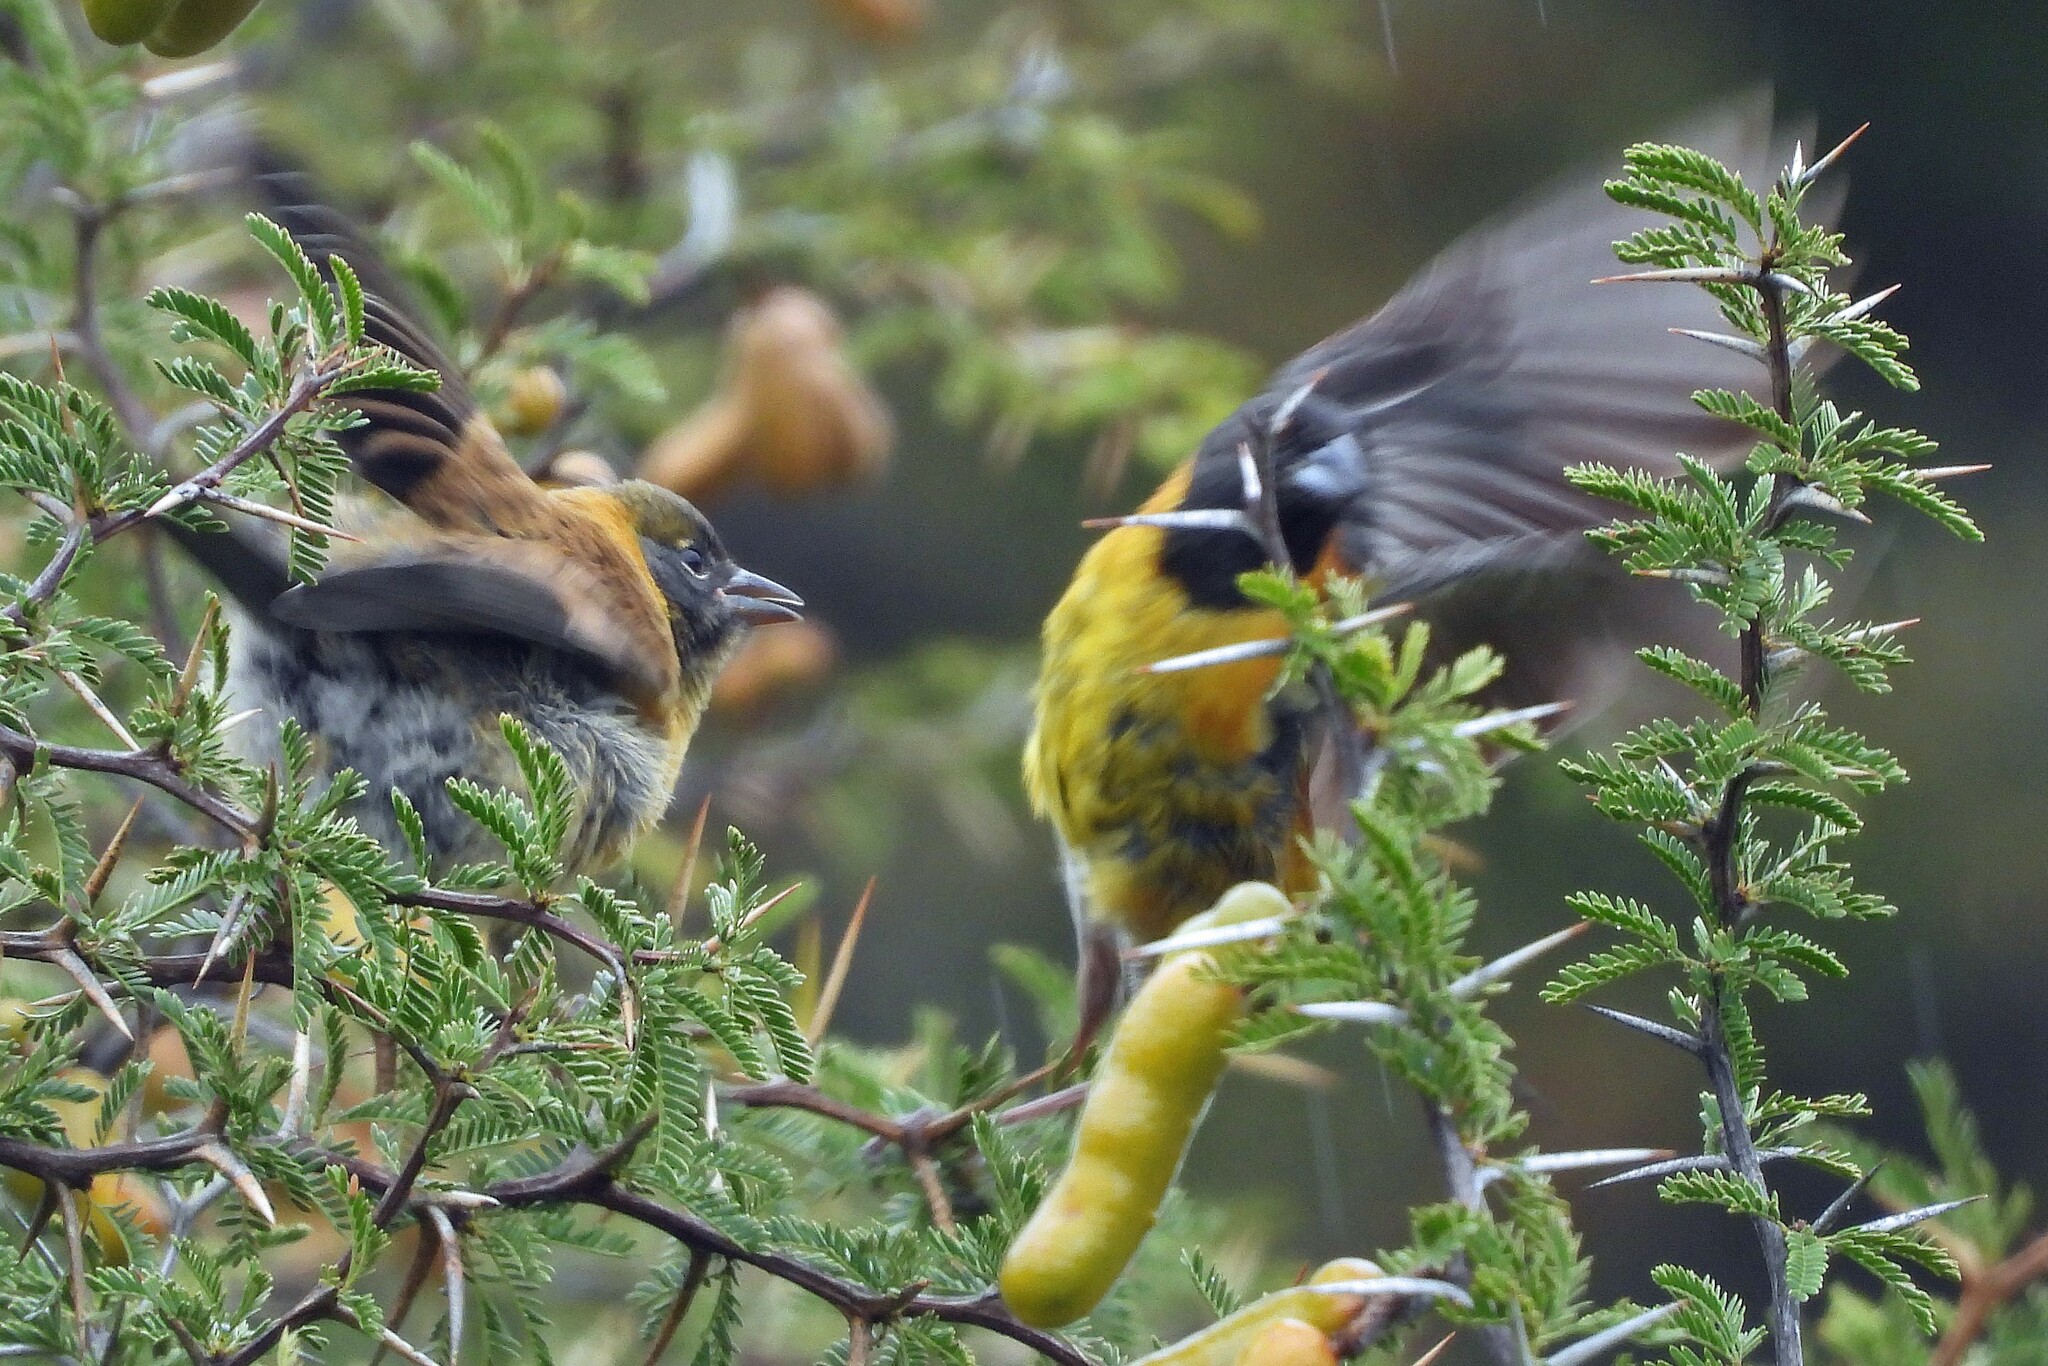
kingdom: Animalia
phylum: Chordata
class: Aves
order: Passeriformes
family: Thraupidae
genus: Phrygilus
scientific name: Phrygilus atriceps
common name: Black-hooded sierra finch
